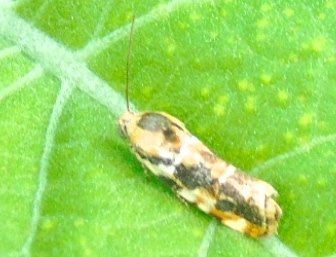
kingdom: Animalia
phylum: Arthropoda
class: Insecta
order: Lepidoptera
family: Noctuidae
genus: Spragueia
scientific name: Spragueia
